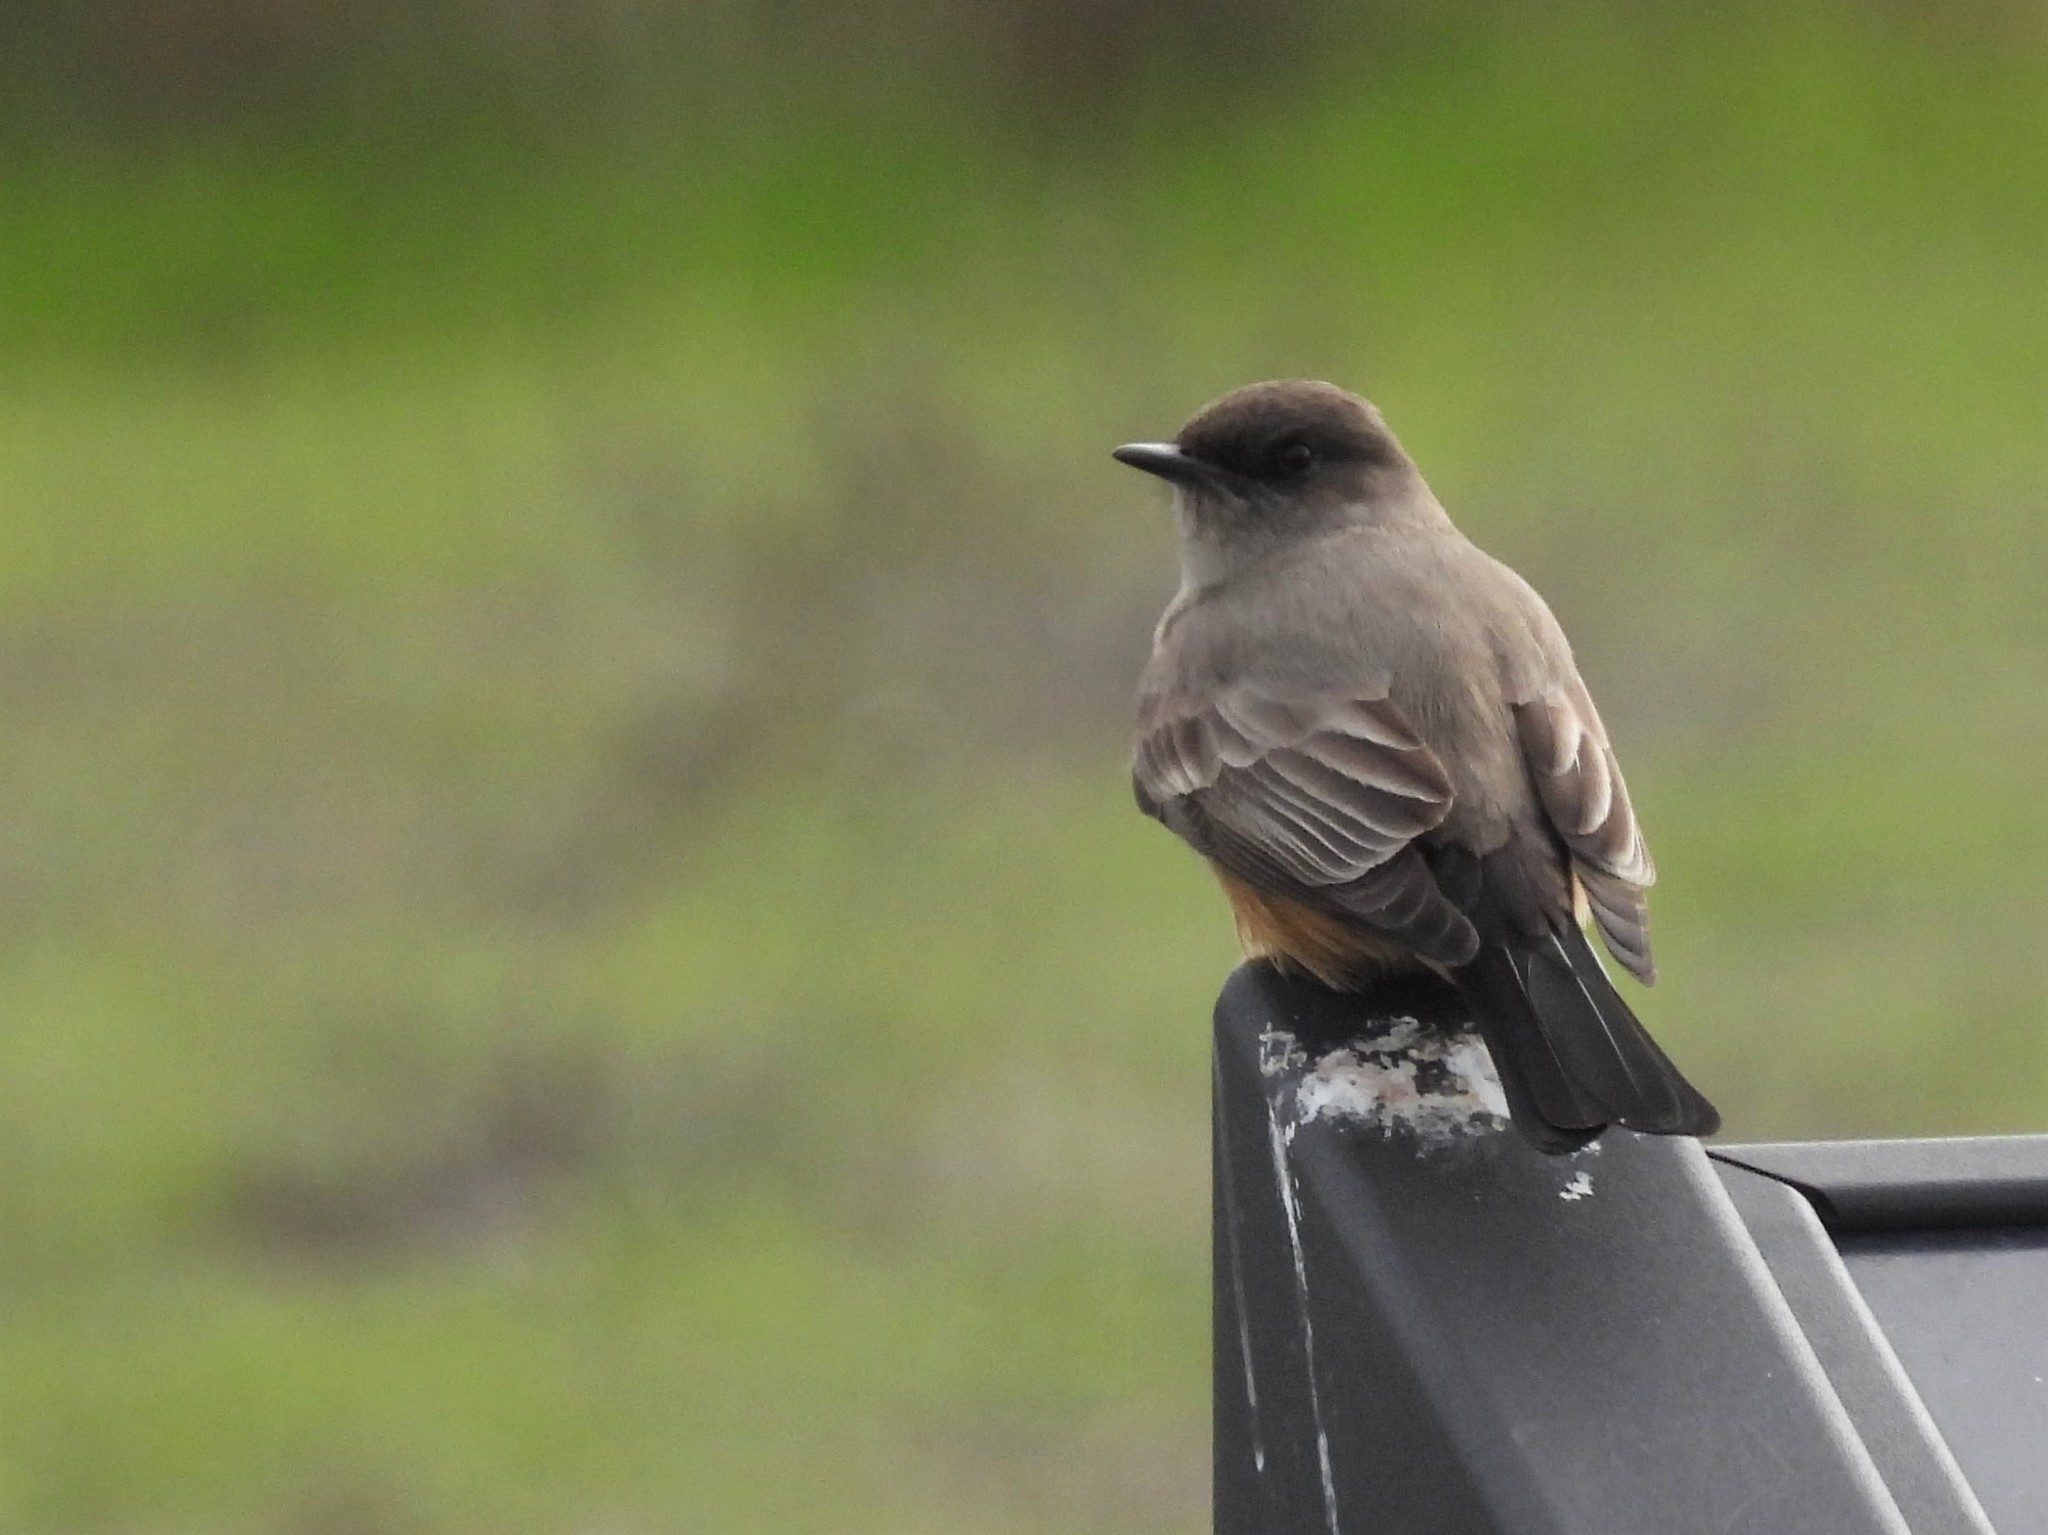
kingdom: Animalia
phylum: Chordata
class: Aves
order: Passeriformes
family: Tyrannidae
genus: Sayornis
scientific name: Sayornis saya
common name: Say's phoebe
